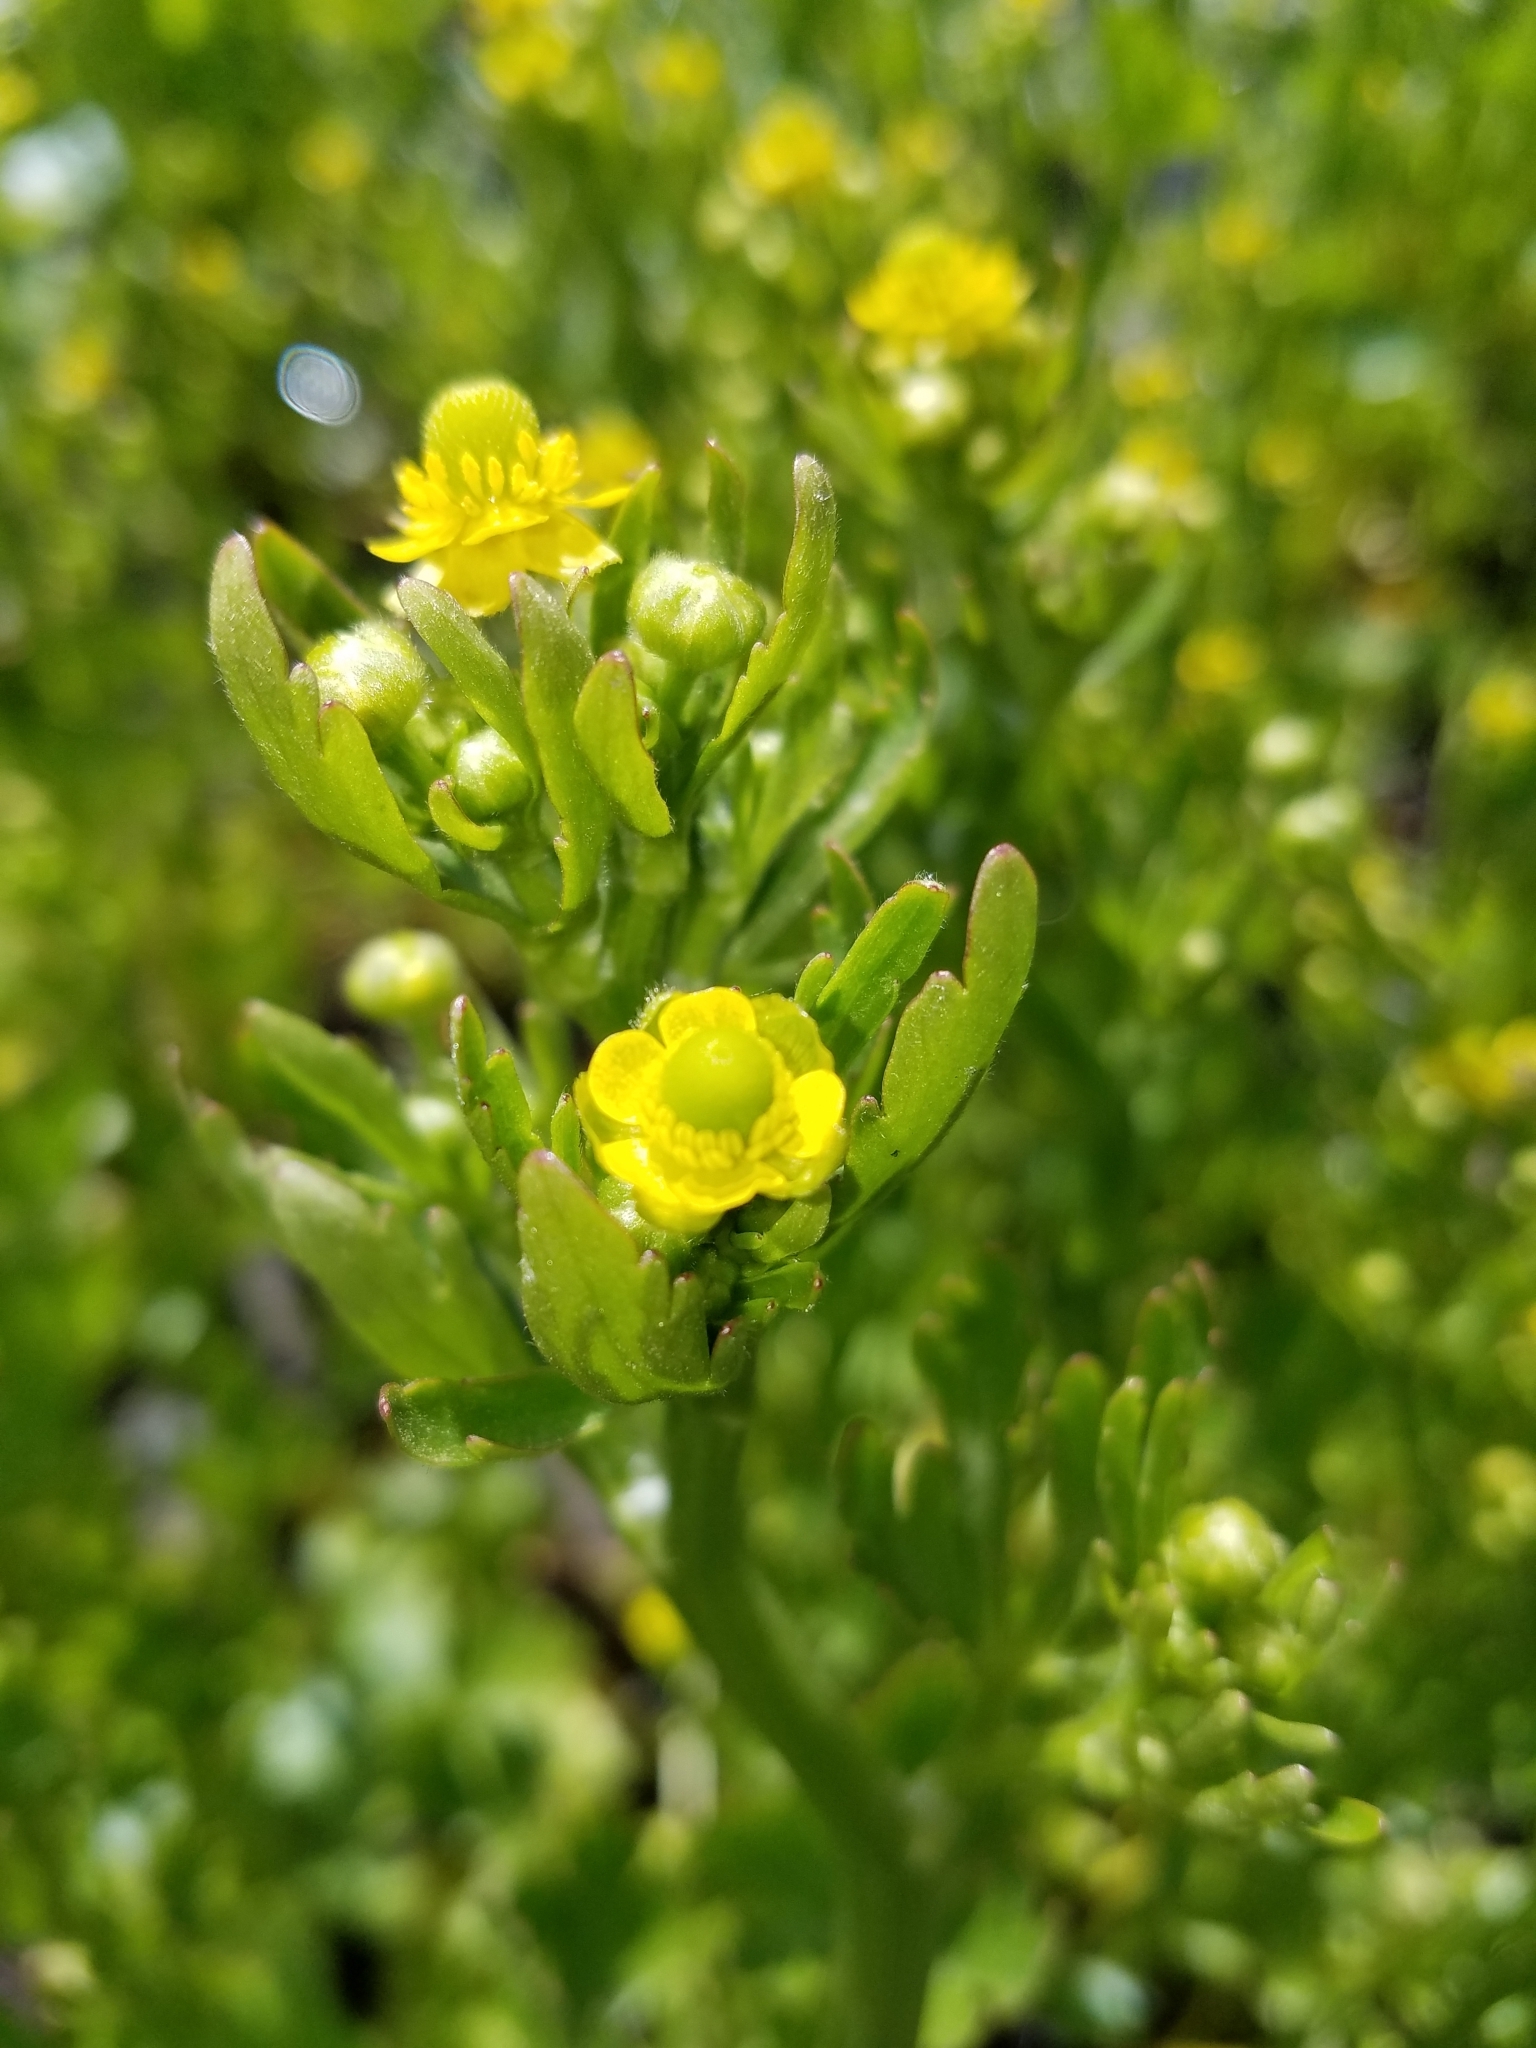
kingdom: Plantae
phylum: Tracheophyta
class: Magnoliopsida
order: Ranunculales
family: Ranunculaceae
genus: Ranunculus
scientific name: Ranunculus sceleratus
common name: Celery-leaved buttercup
